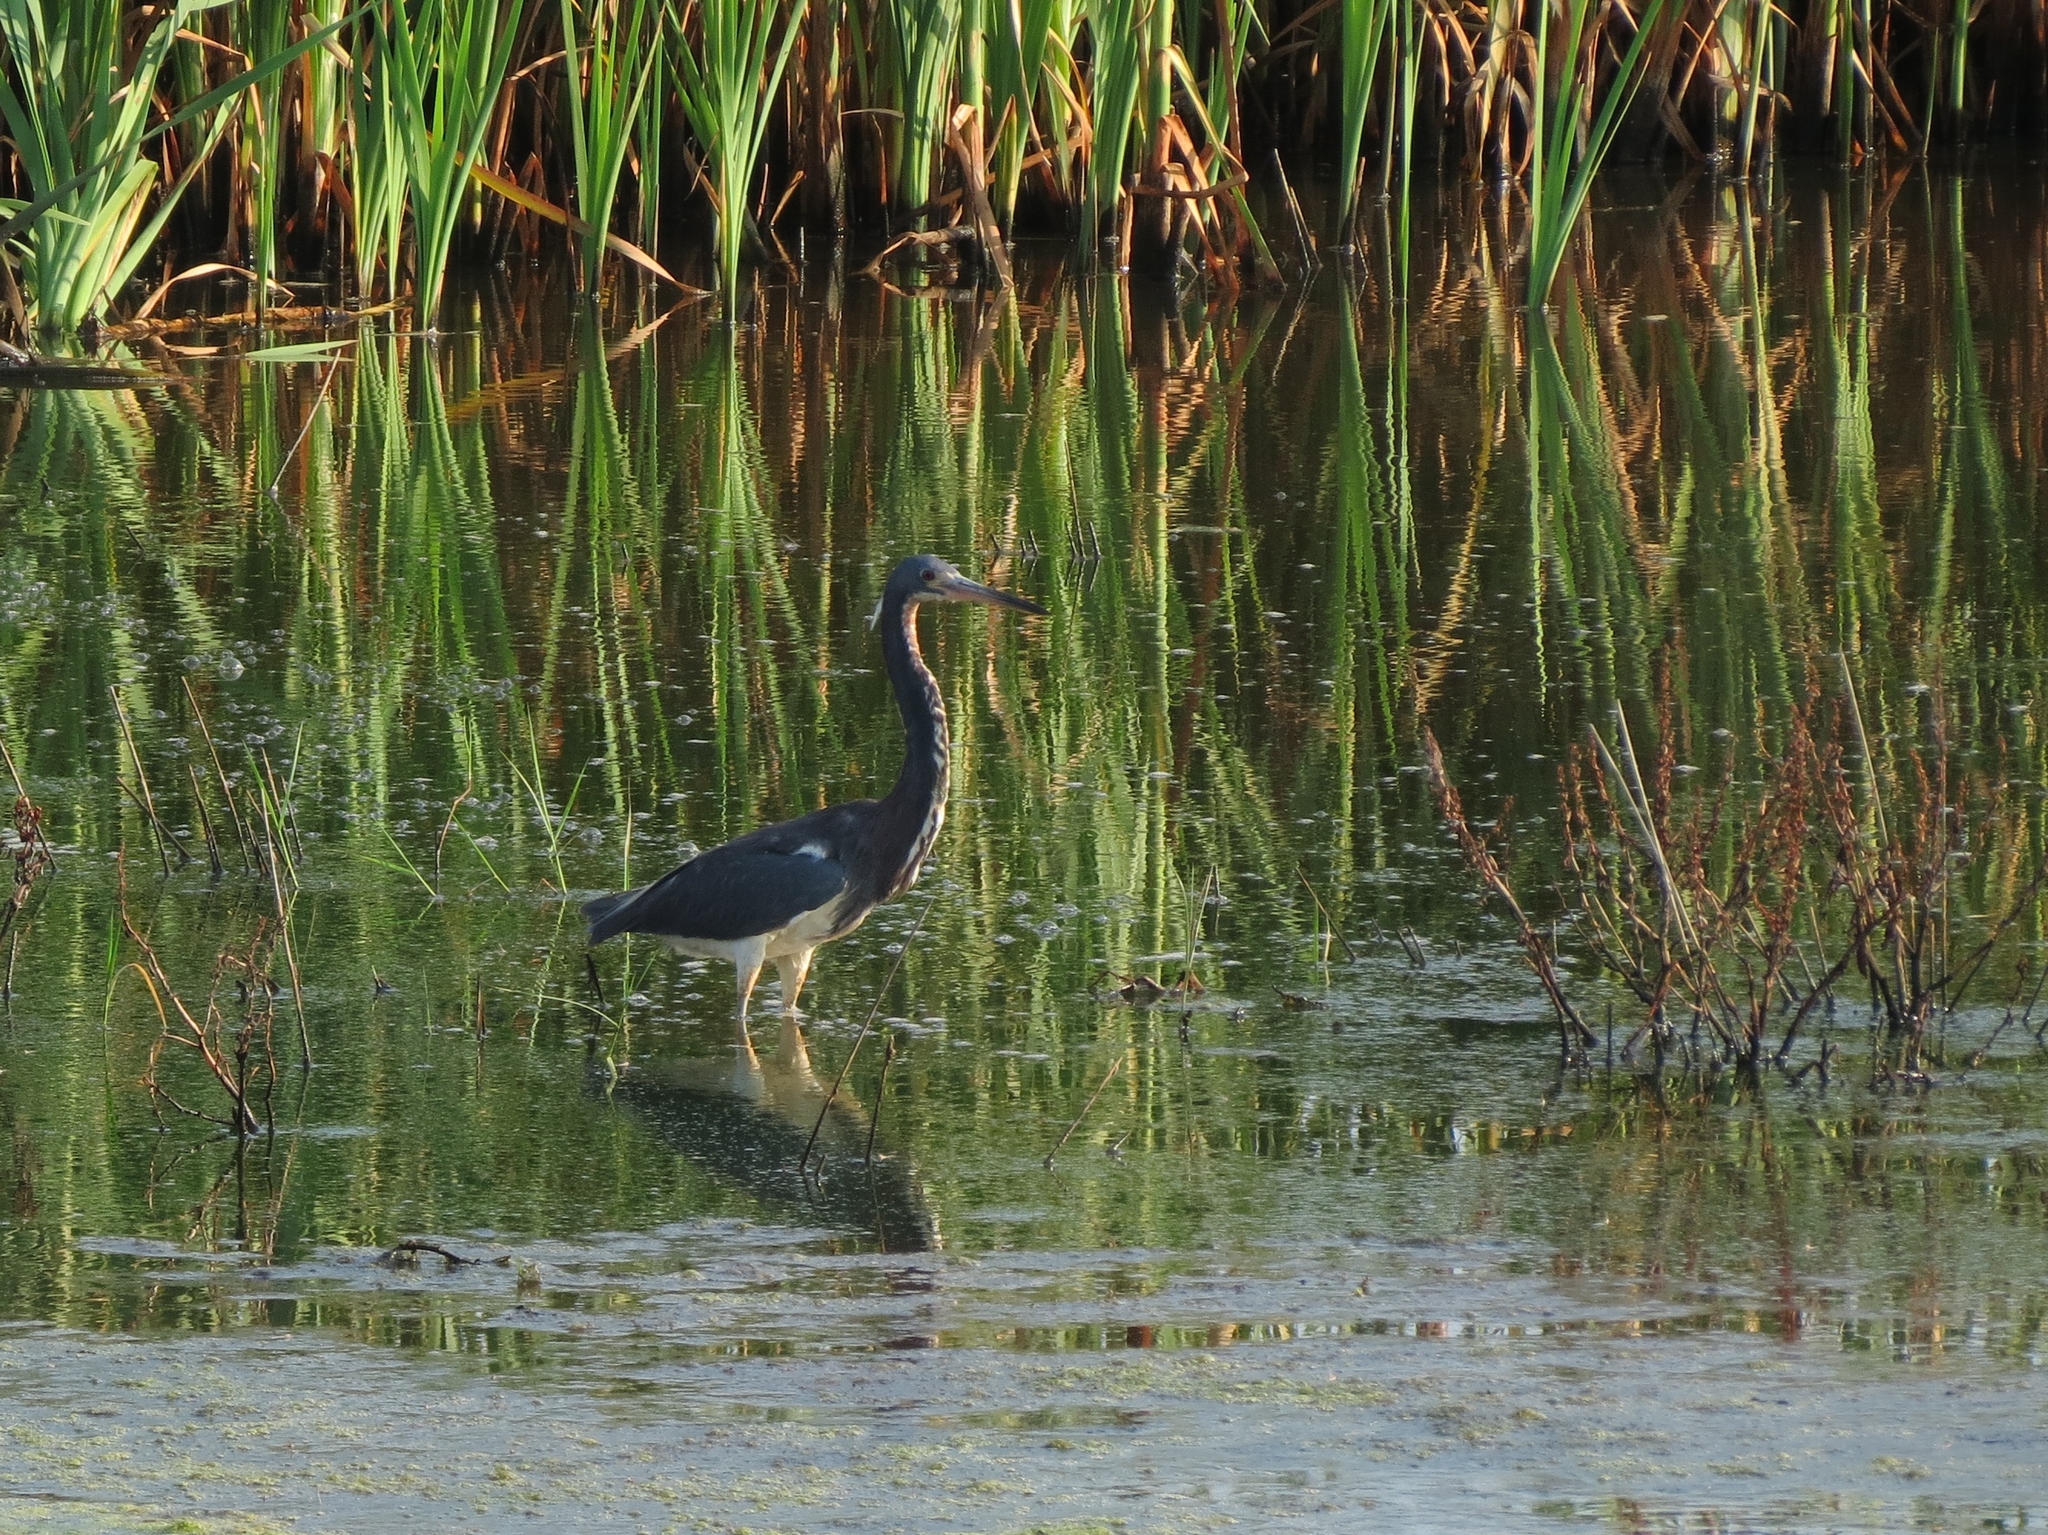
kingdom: Animalia
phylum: Chordata
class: Aves
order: Pelecaniformes
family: Ardeidae
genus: Egretta
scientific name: Egretta tricolor
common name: Tricolored heron
